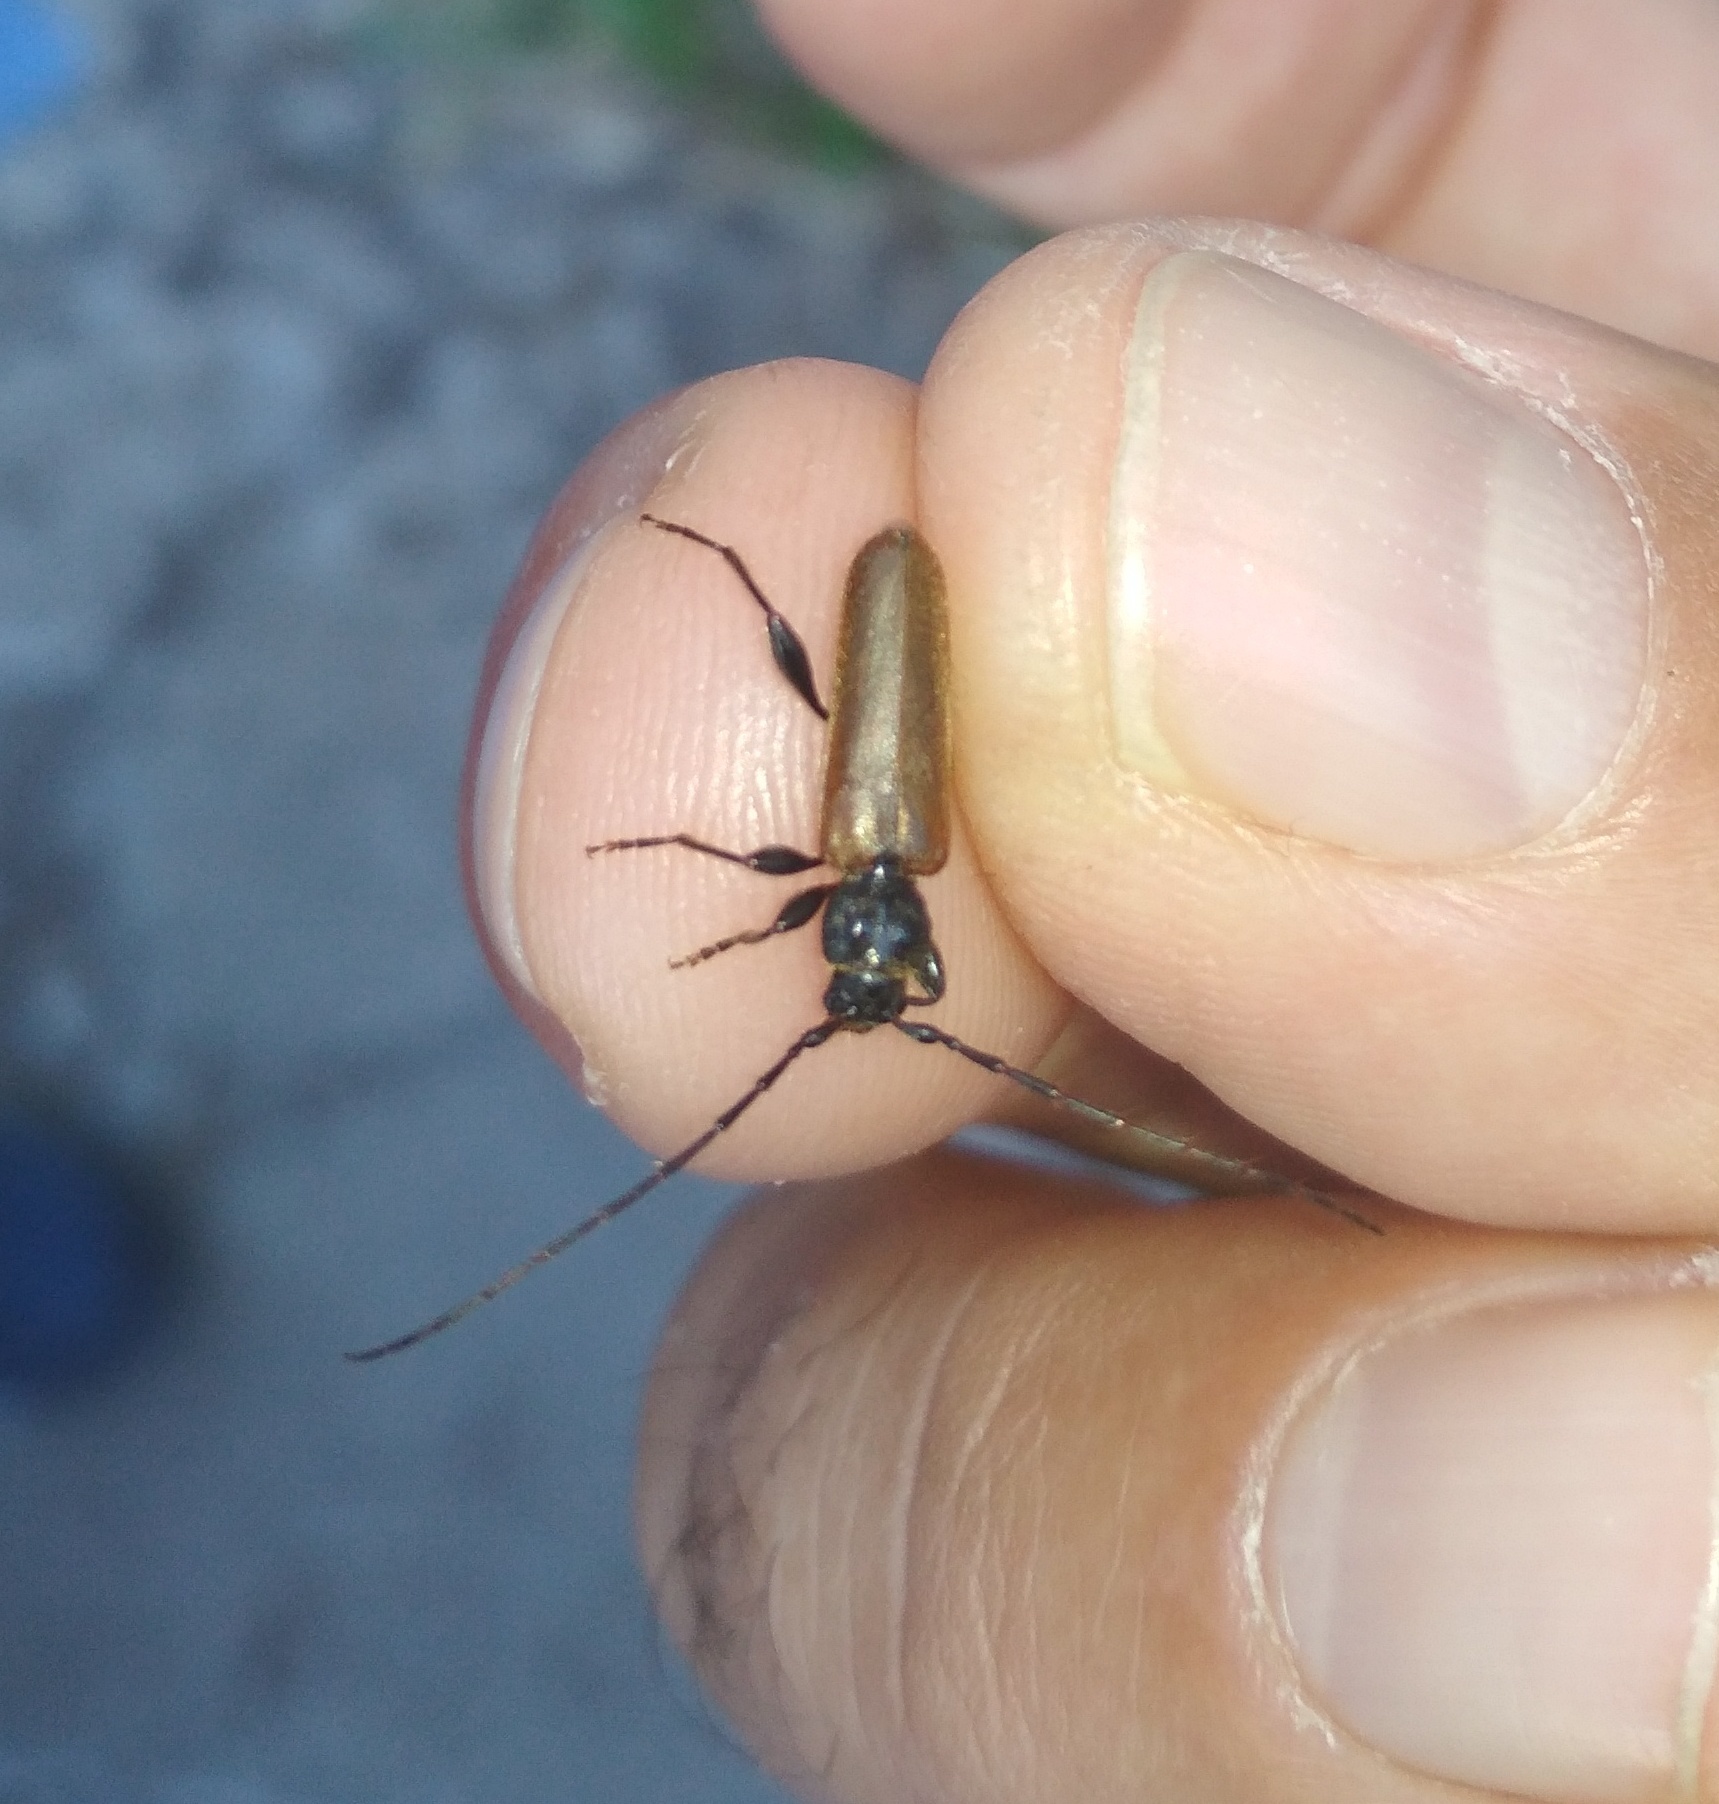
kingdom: Animalia
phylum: Arthropoda
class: Insecta
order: Coleoptera
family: Cerambycidae
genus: Phymatodes
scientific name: Phymatodes testaceus
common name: Long-horned beetle
